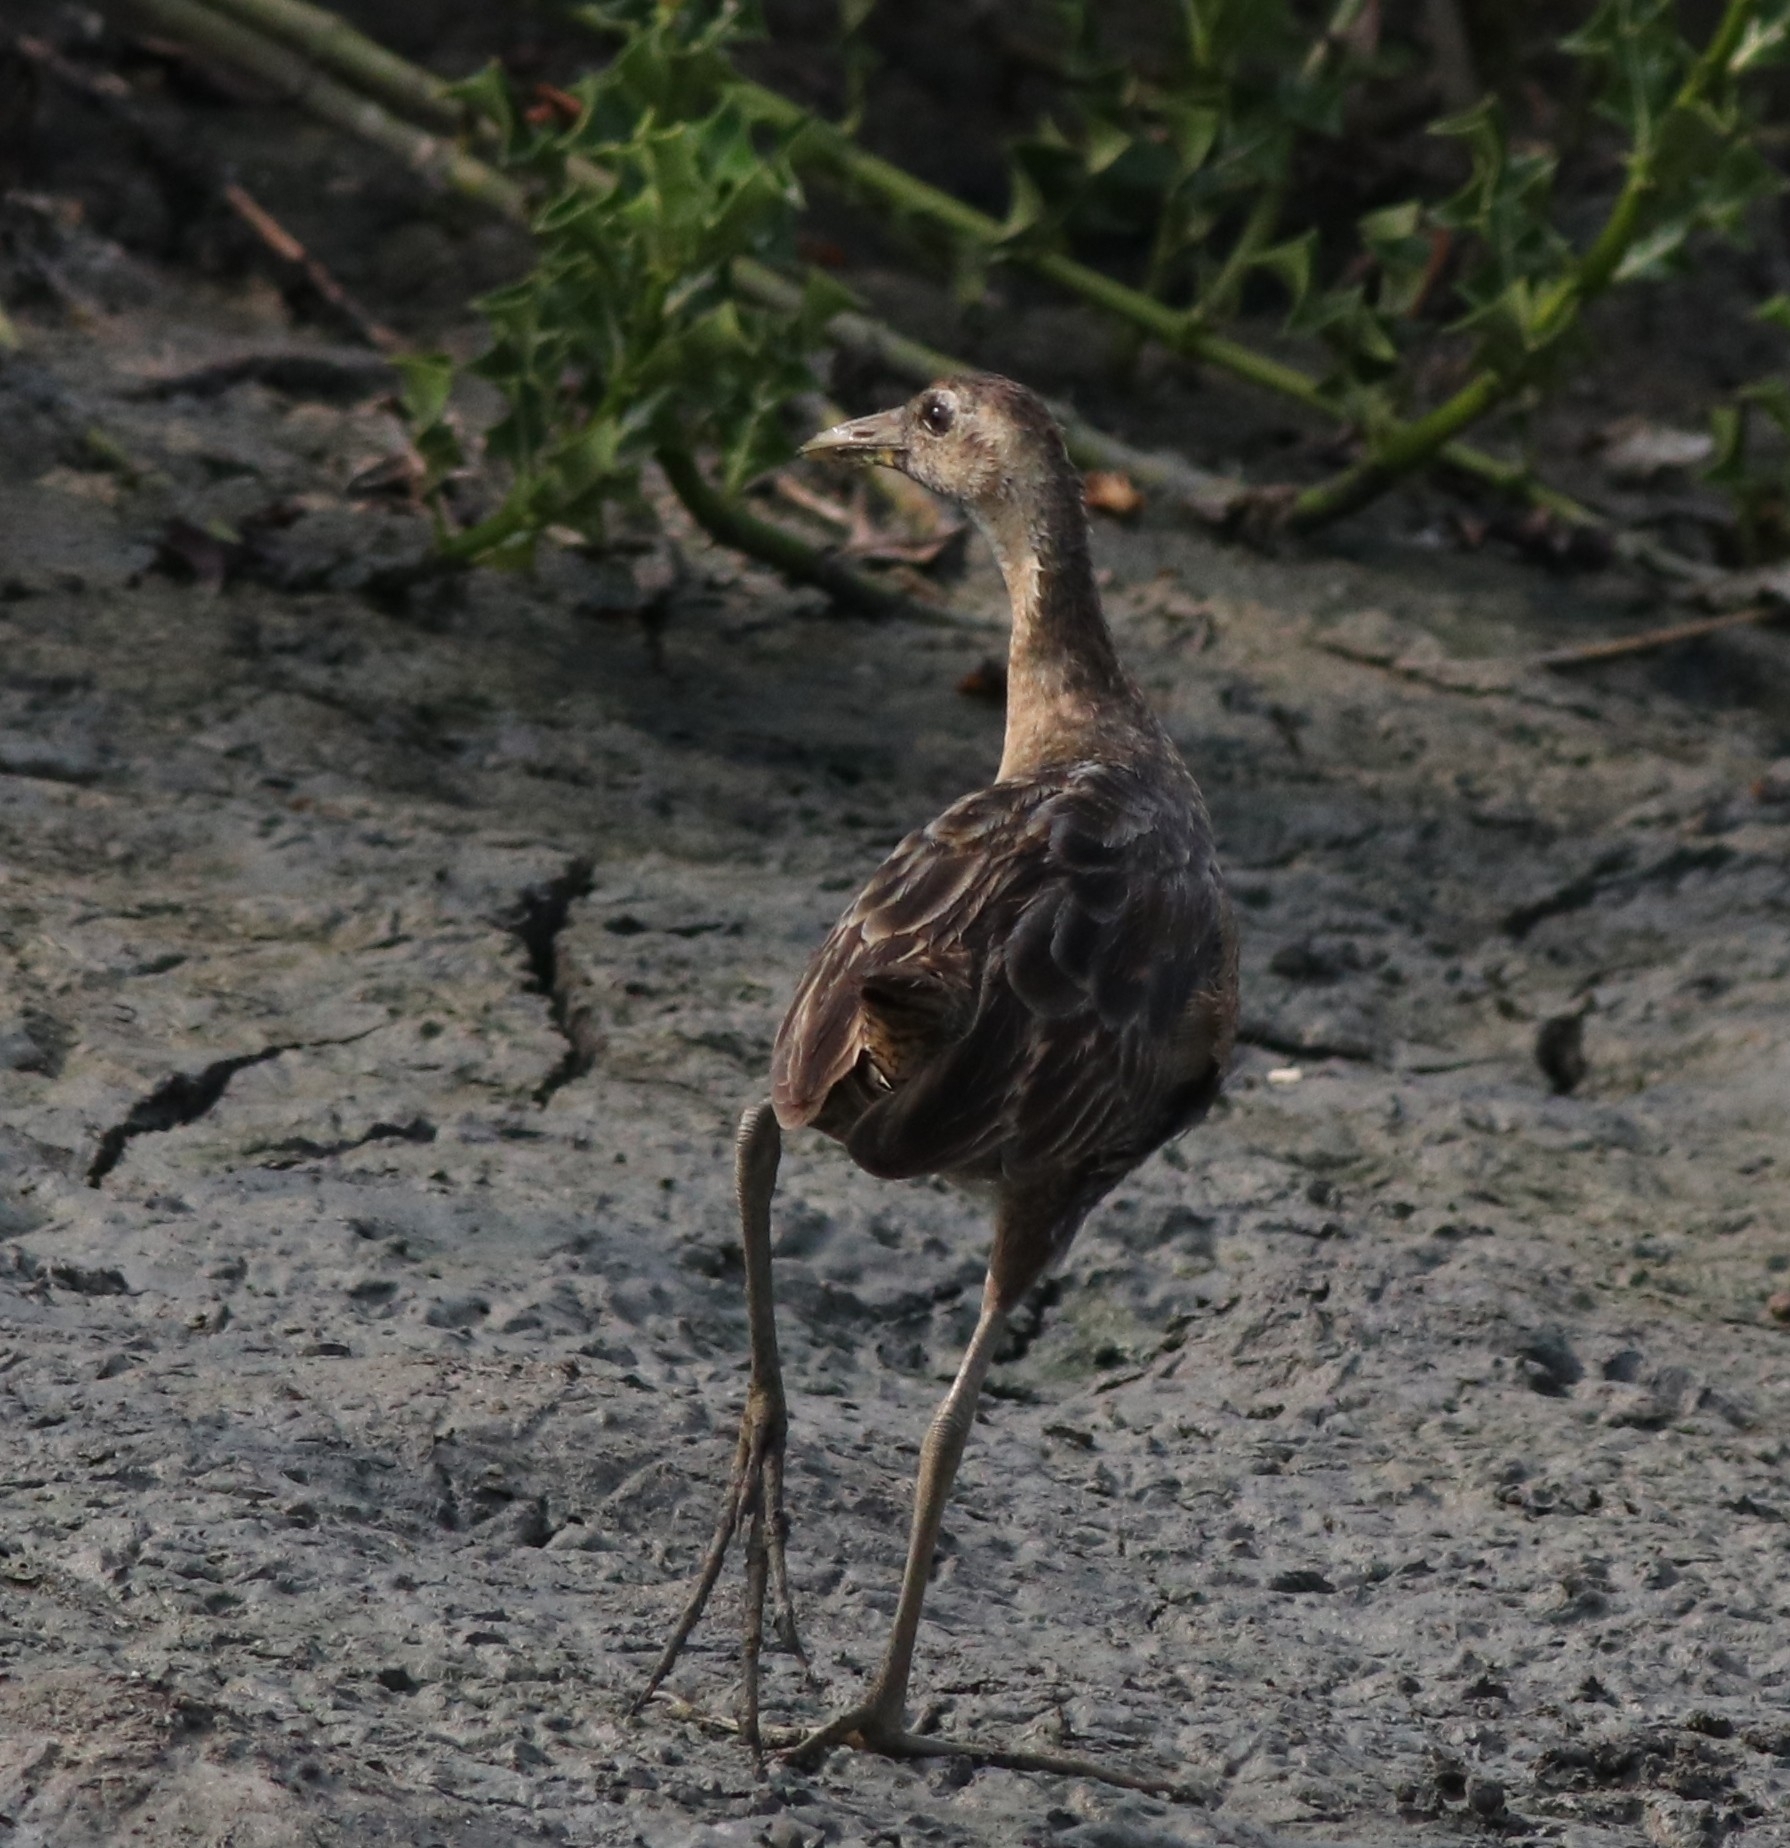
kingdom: Animalia
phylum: Chordata
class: Aves
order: Gruiformes
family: Rallidae
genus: Gallicrex
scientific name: Gallicrex cinerea
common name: Watercock
